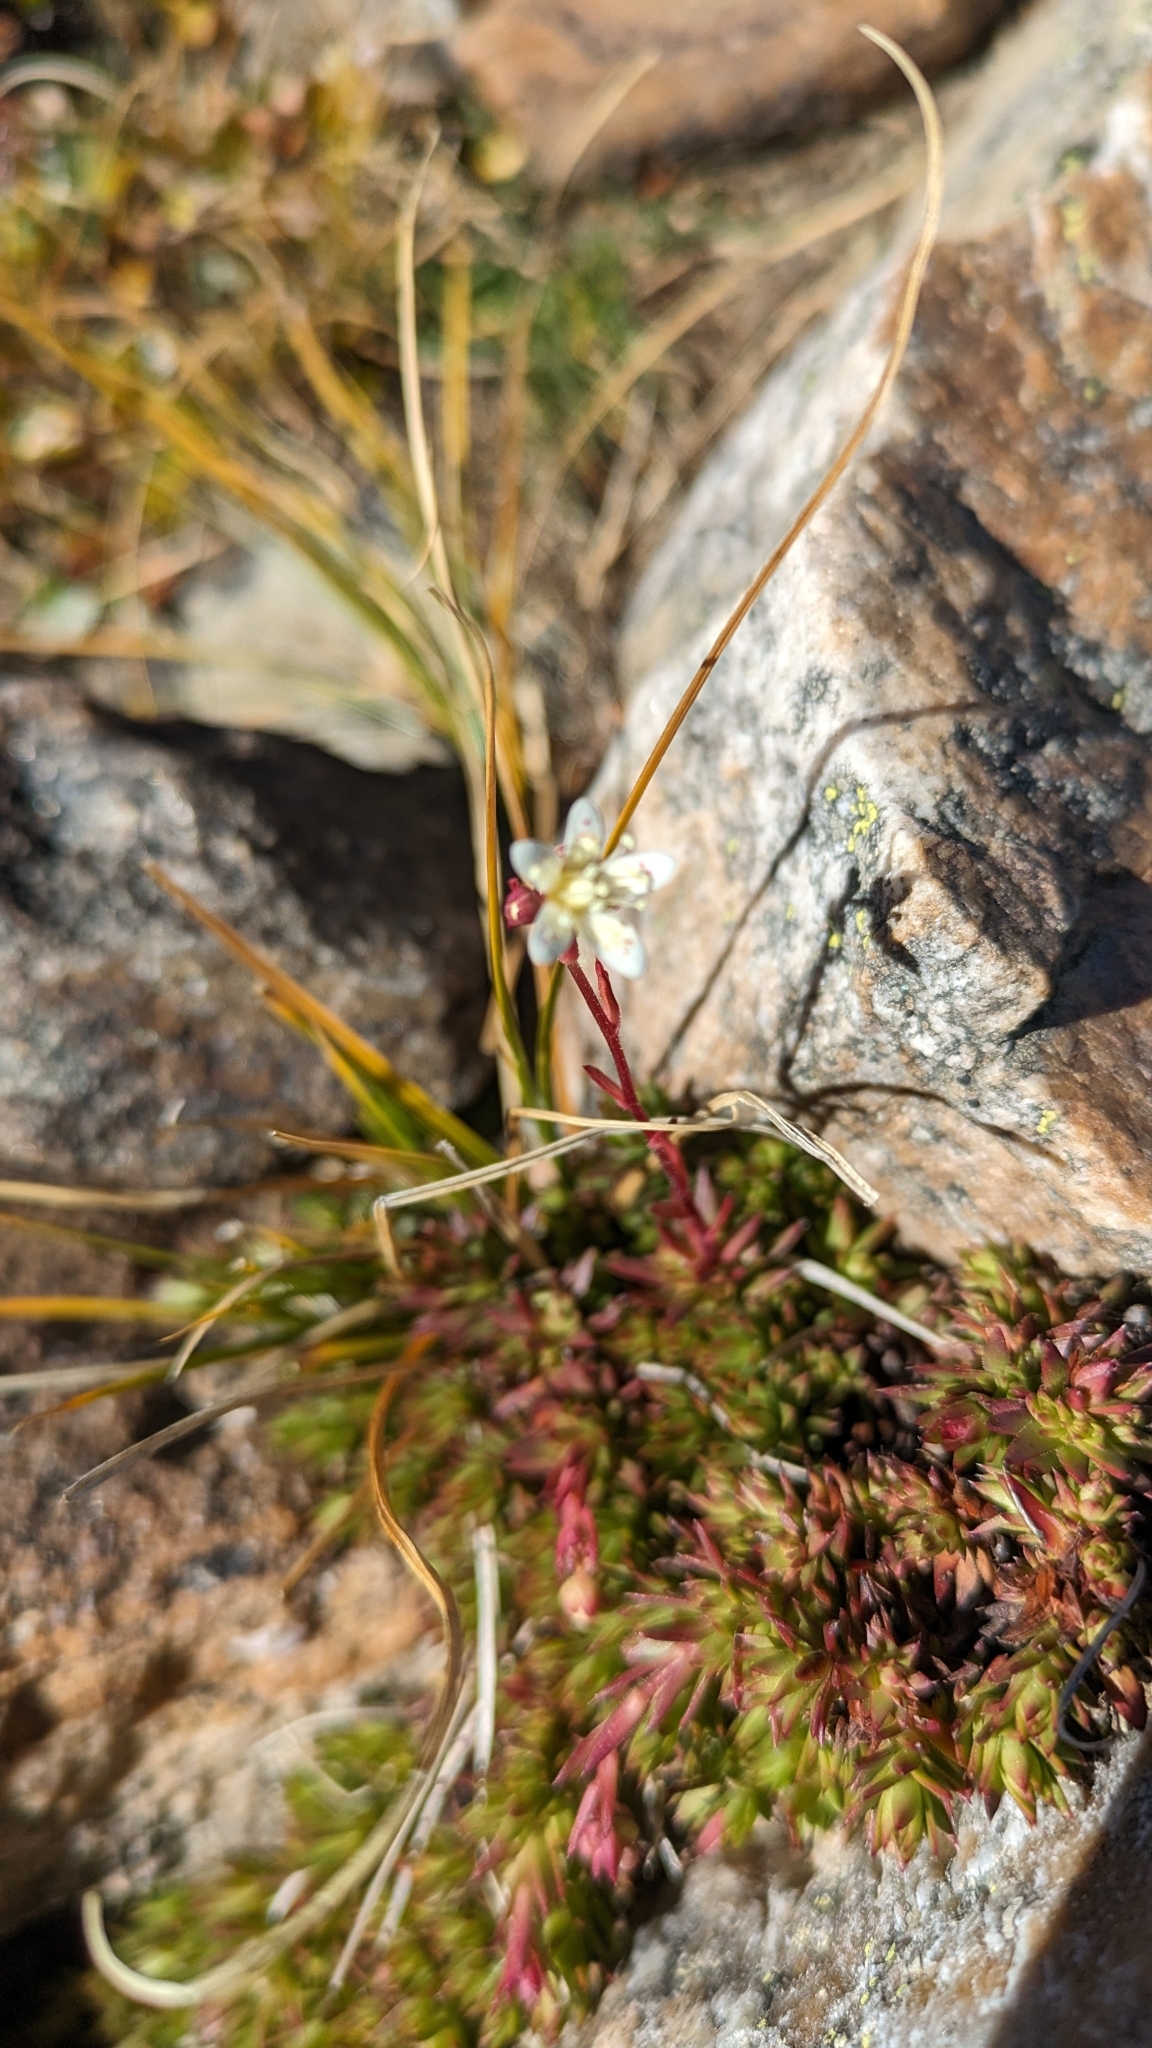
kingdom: Plantae
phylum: Tracheophyta
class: Magnoliopsida
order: Saxifragales
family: Saxifragaceae
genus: Saxifraga
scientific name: Saxifraga bronchialis
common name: Matted saxifrage
